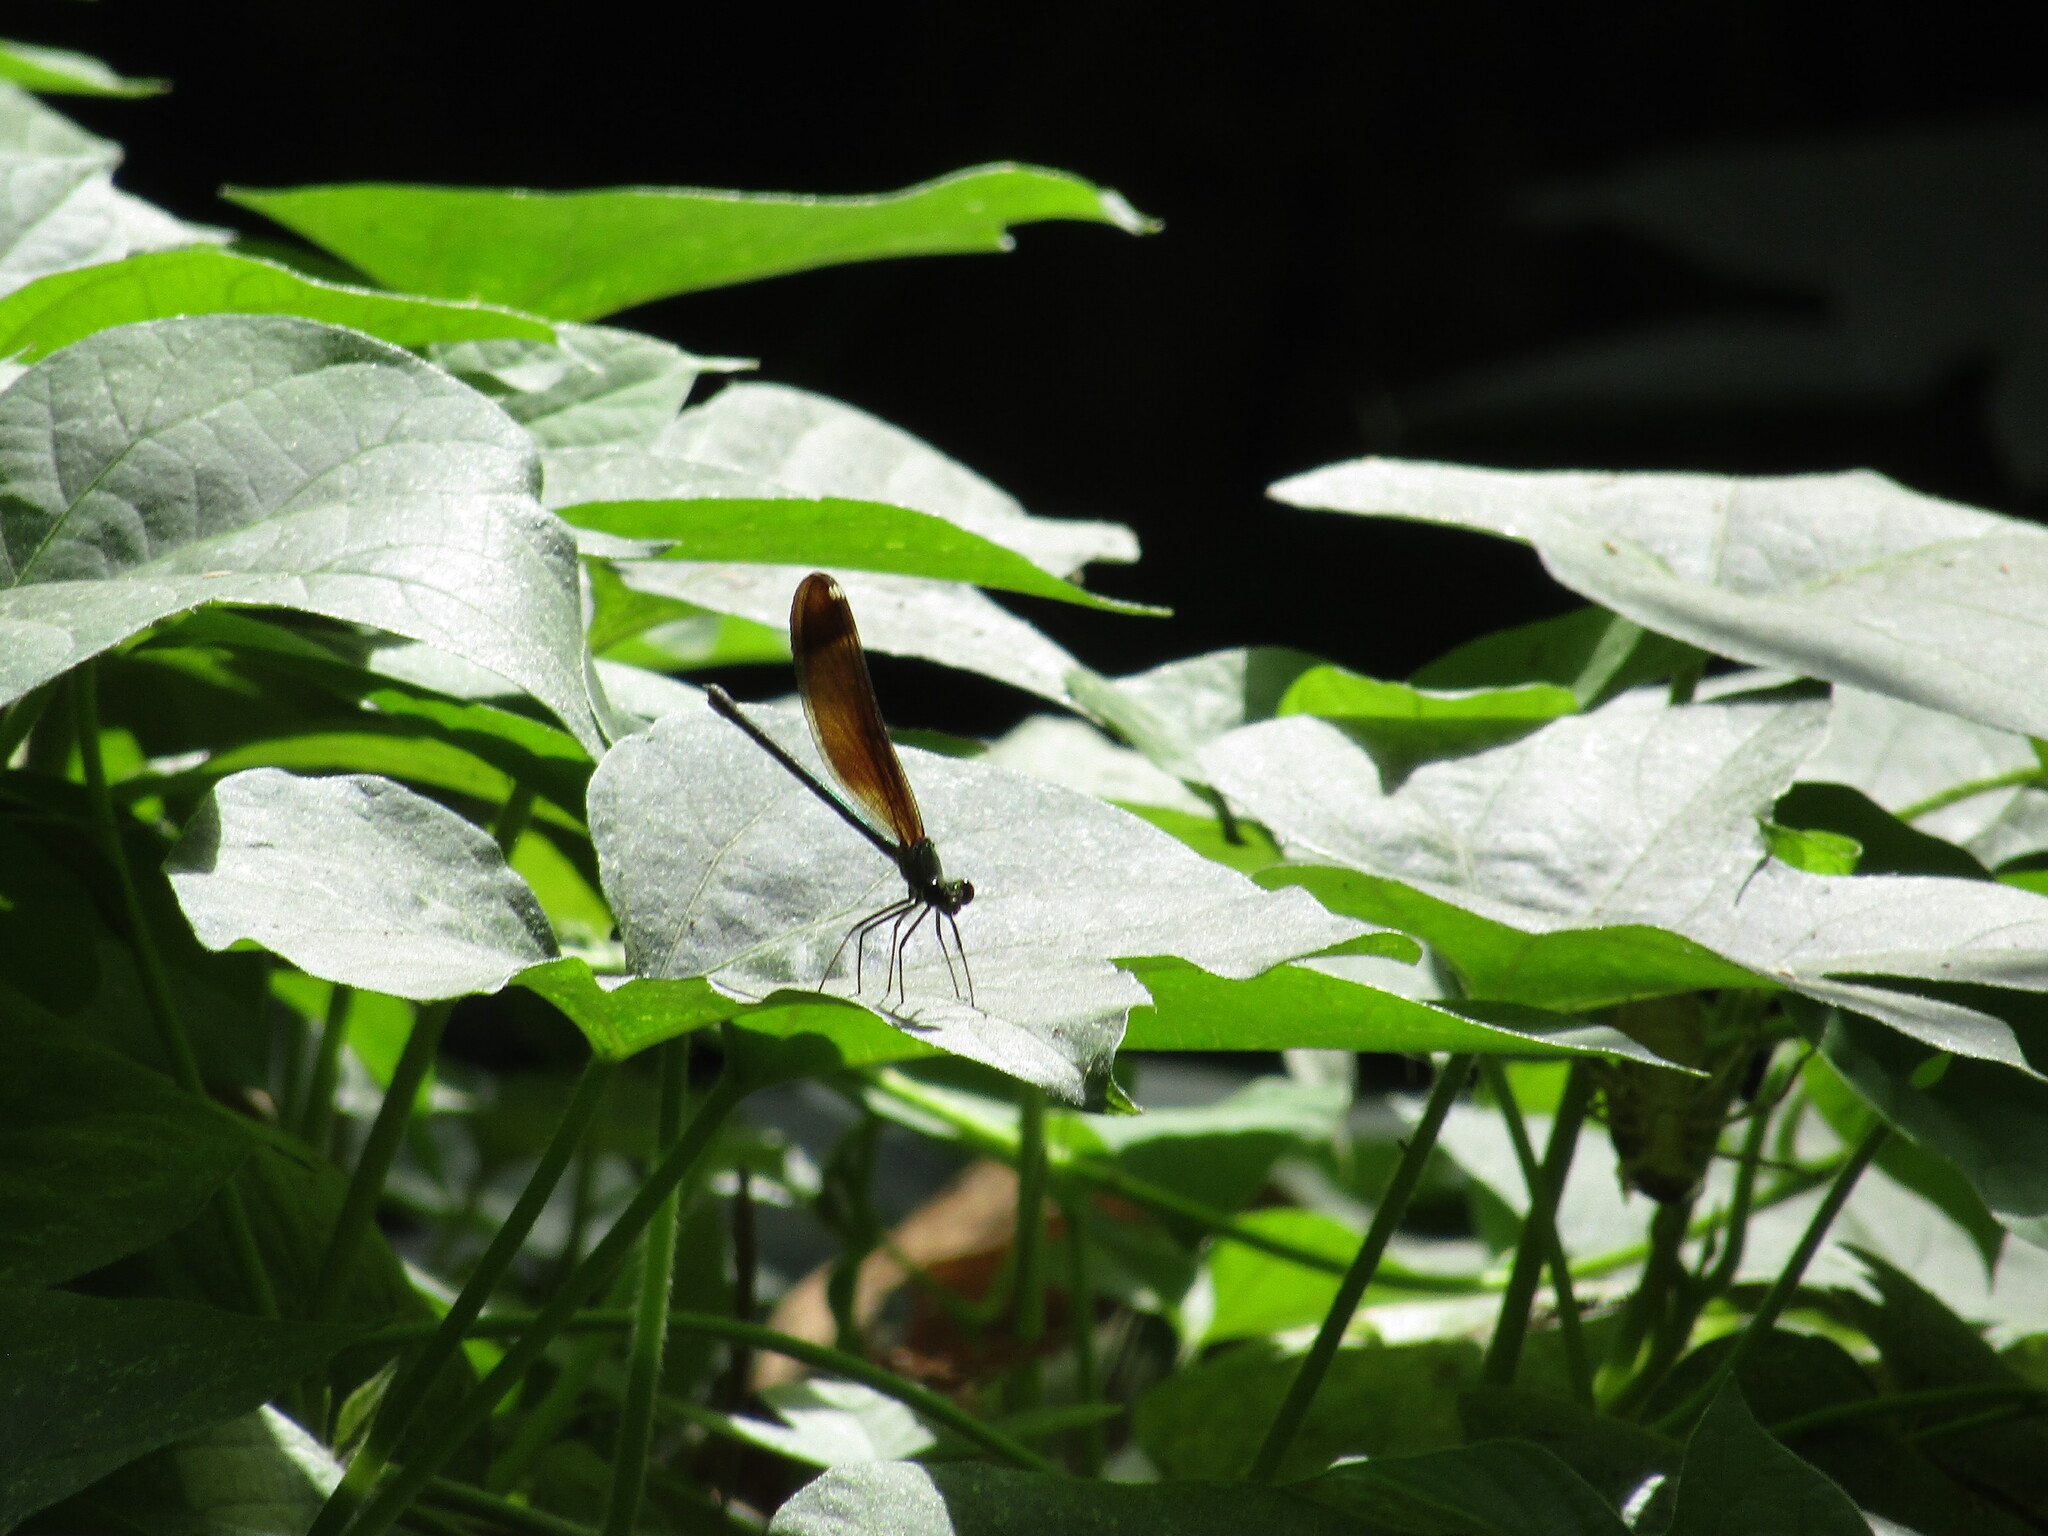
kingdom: Animalia
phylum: Arthropoda
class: Insecta
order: Odonata
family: Calopterygidae
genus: Calopteryx
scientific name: Calopteryx haemorrhoidalis
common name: Copper demoiselle
